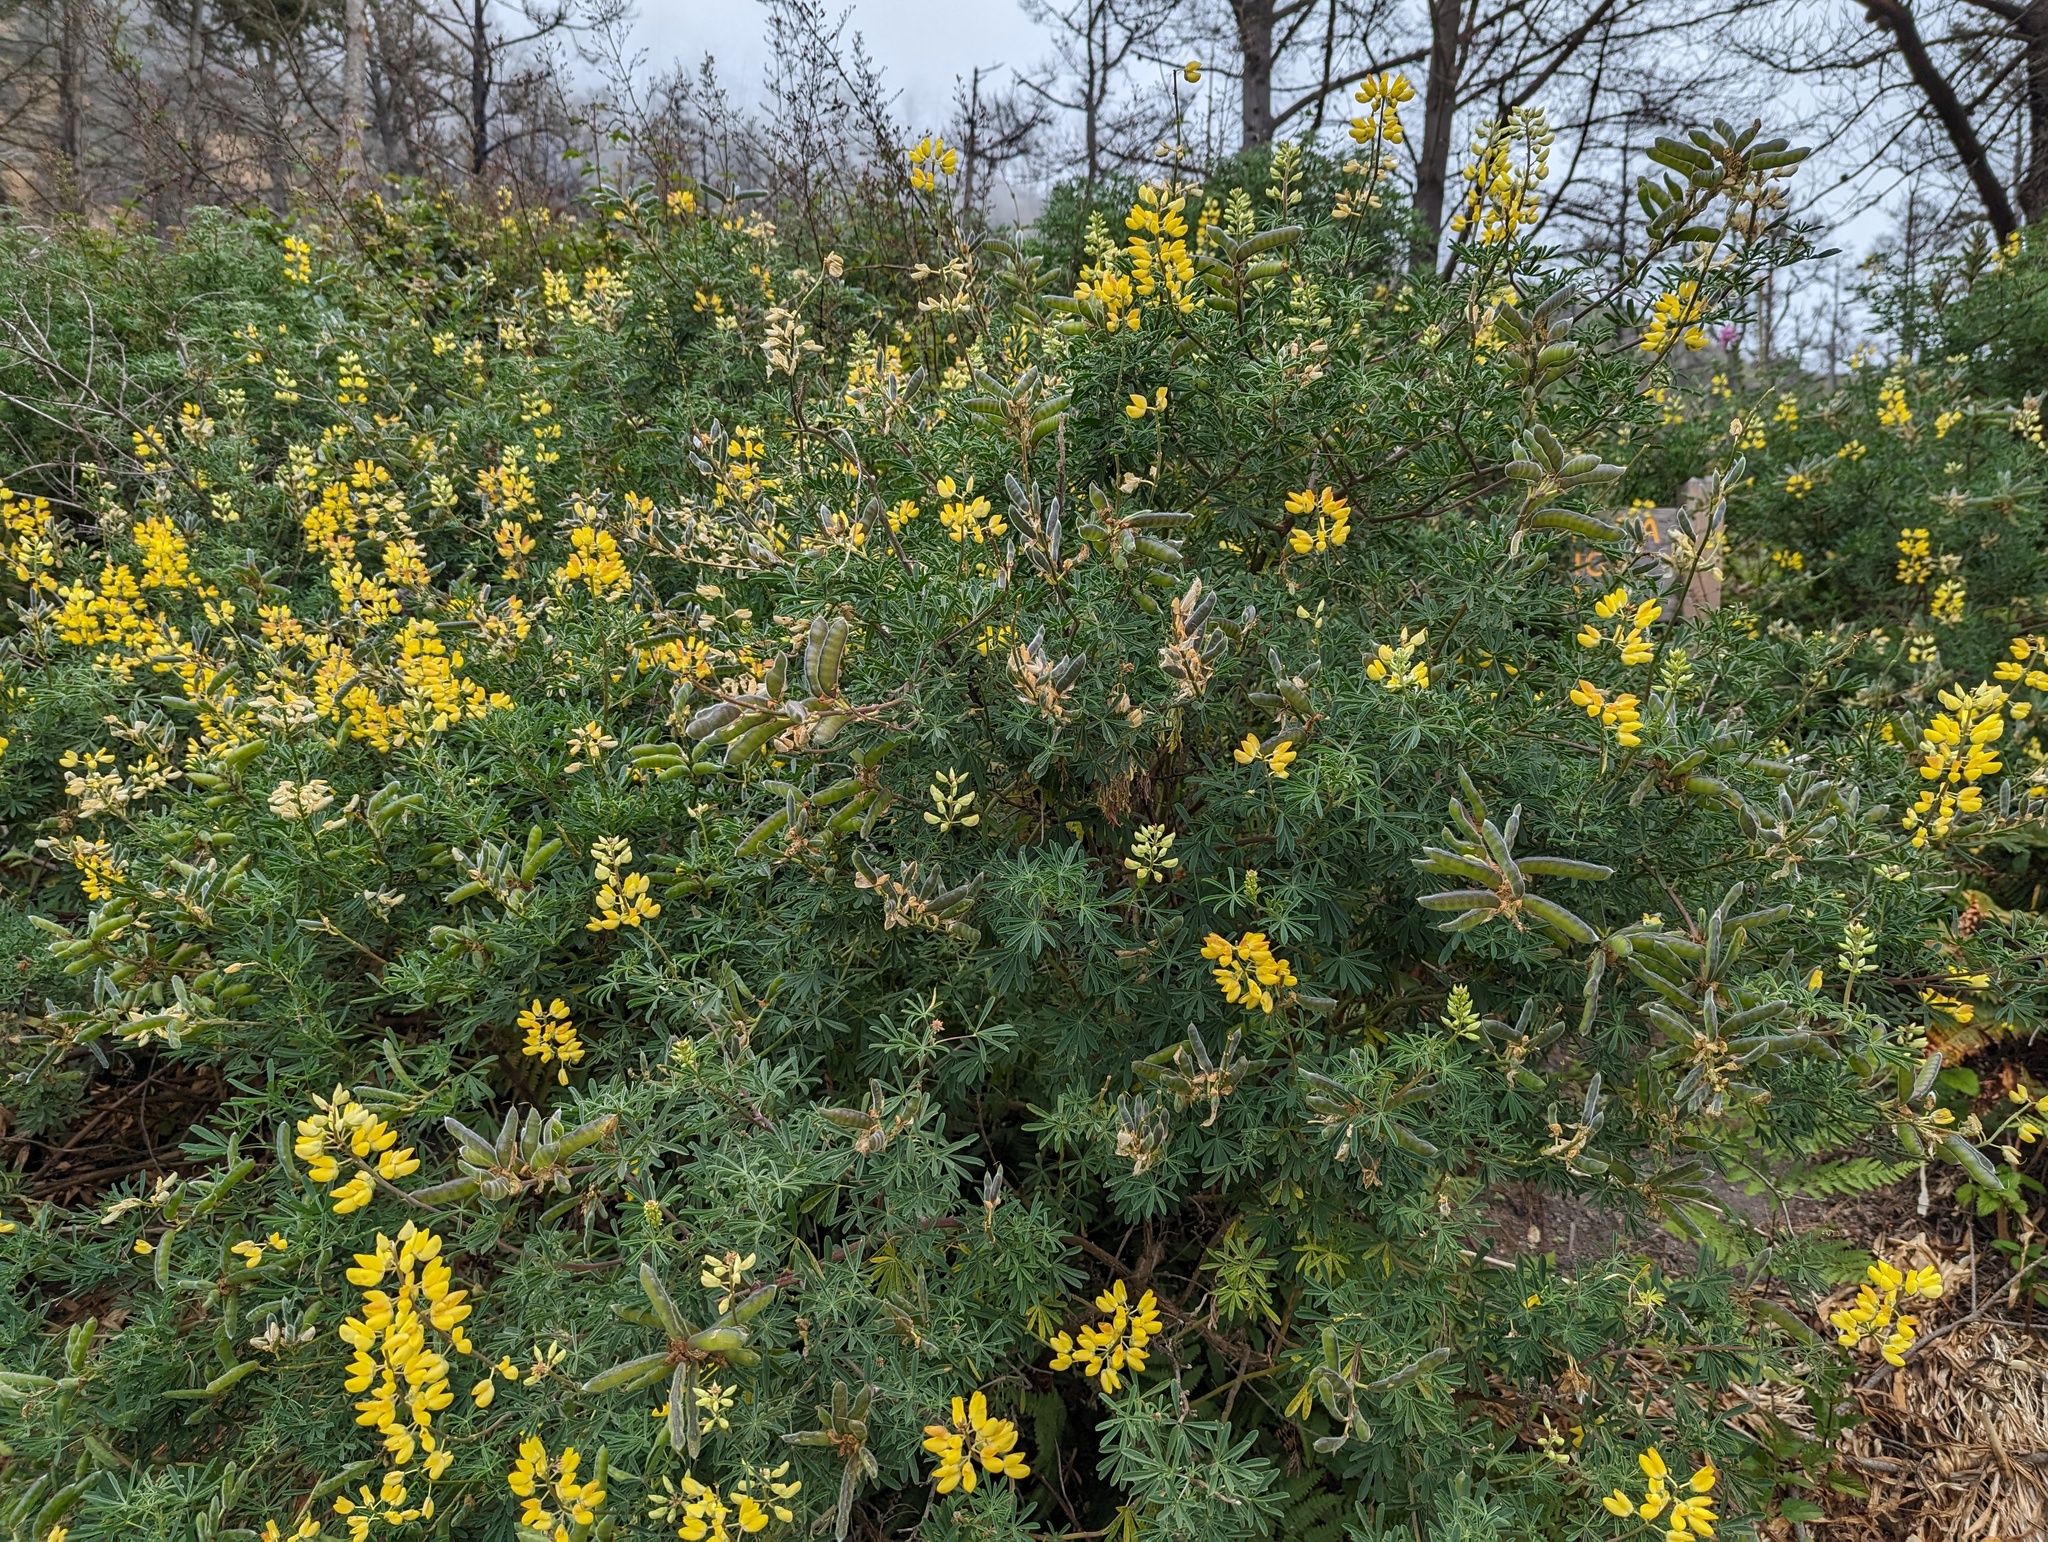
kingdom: Plantae
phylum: Tracheophyta
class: Magnoliopsida
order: Fabales
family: Fabaceae
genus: Lupinus
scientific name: Lupinus arboreus
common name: Yellow bush lupine
